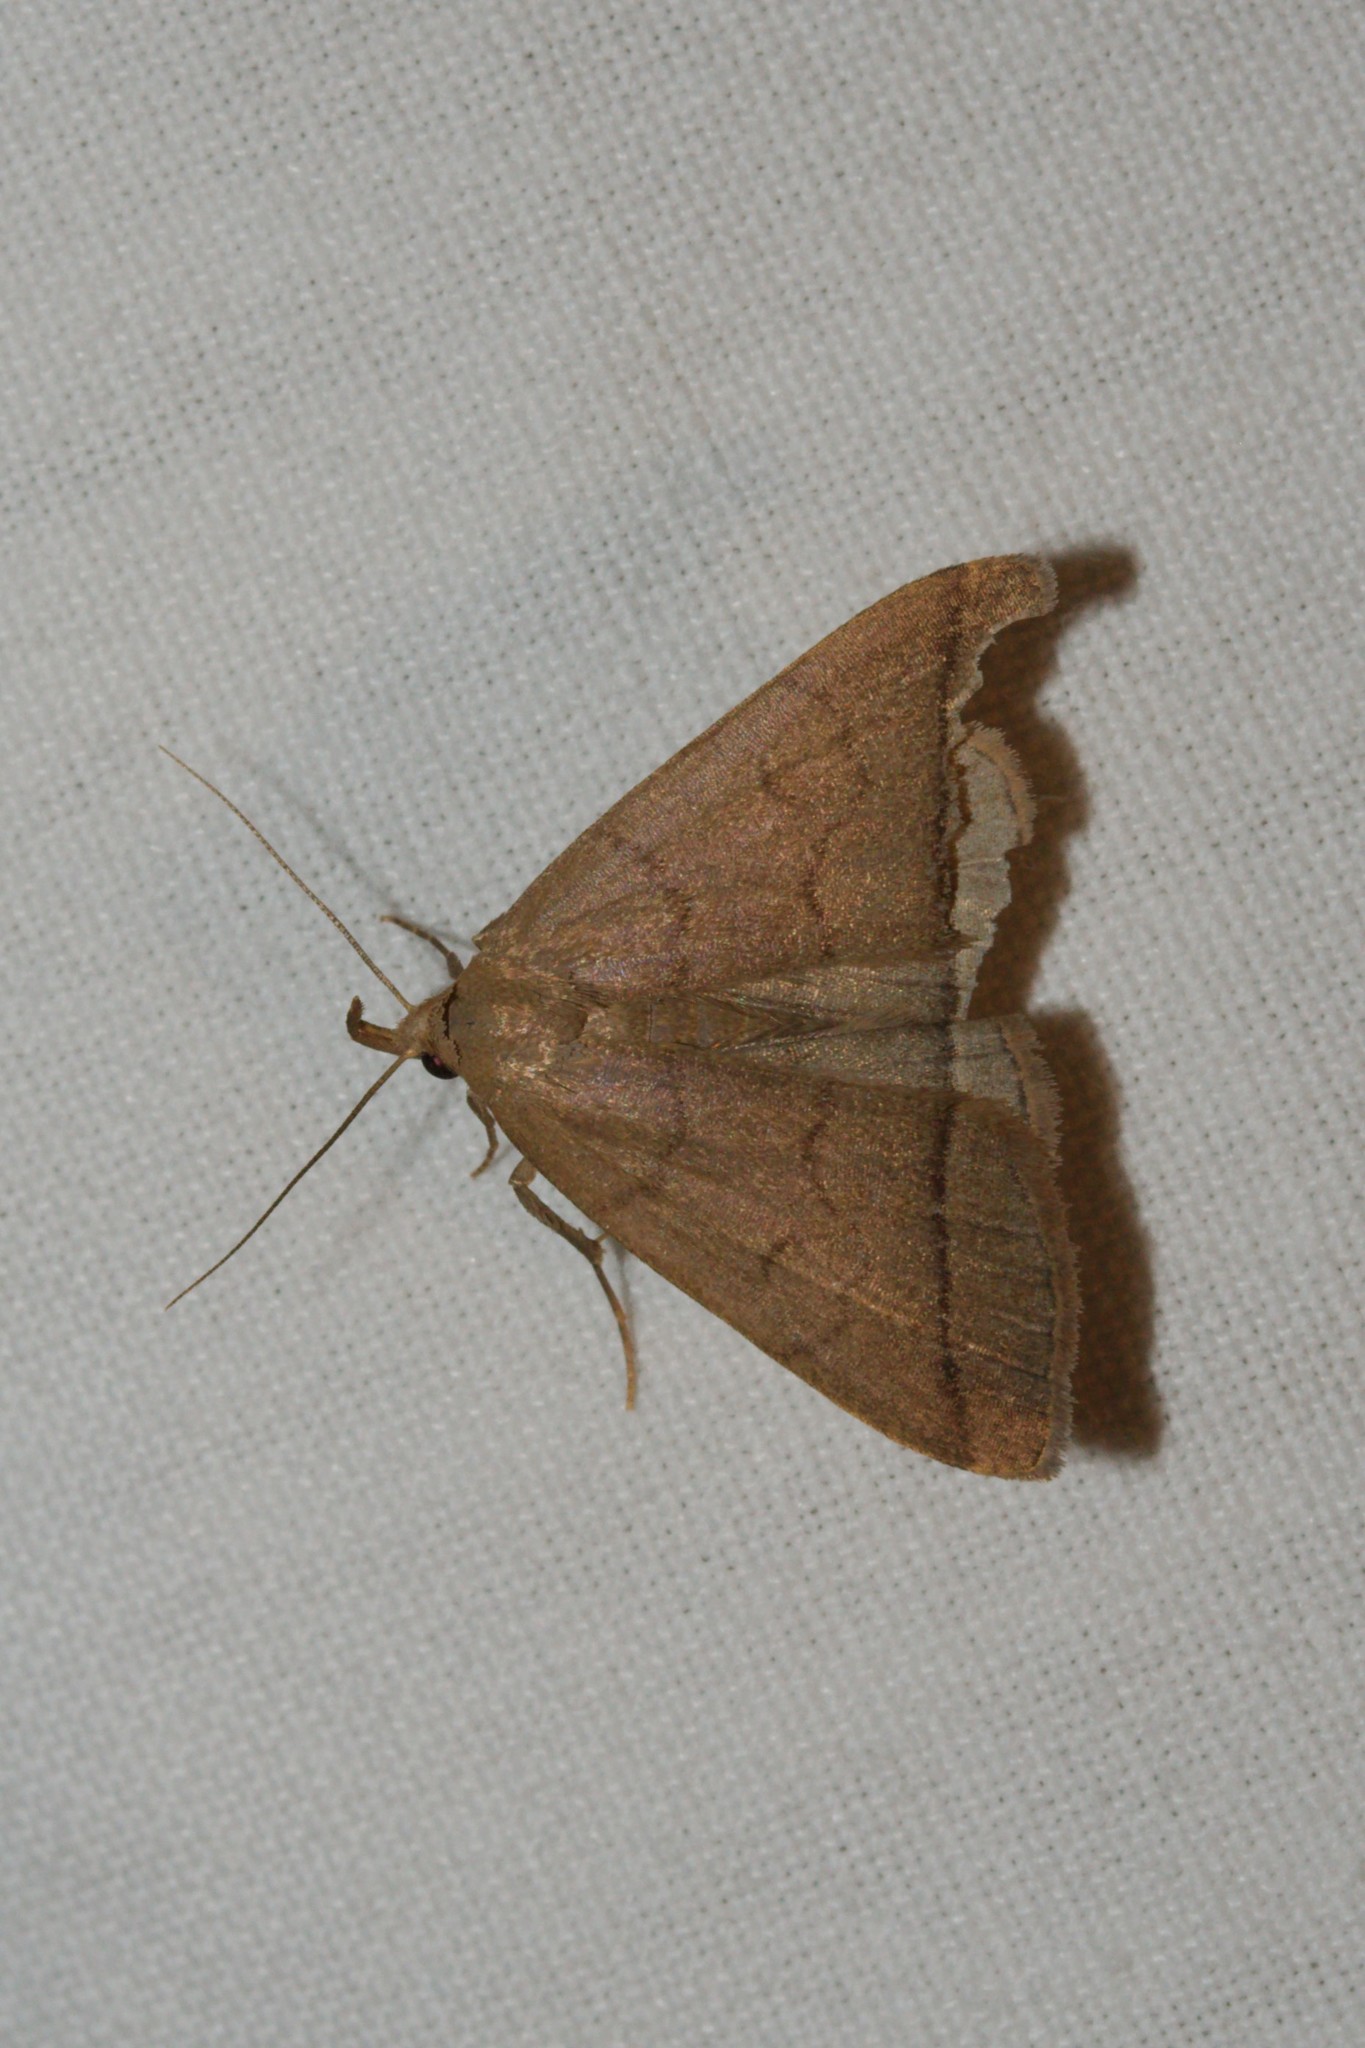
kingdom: Animalia
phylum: Arthropoda
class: Insecta
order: Lepidoptera
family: Erebidae
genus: Herminia
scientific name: Herminia tarsipennalis
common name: Fan-foot
